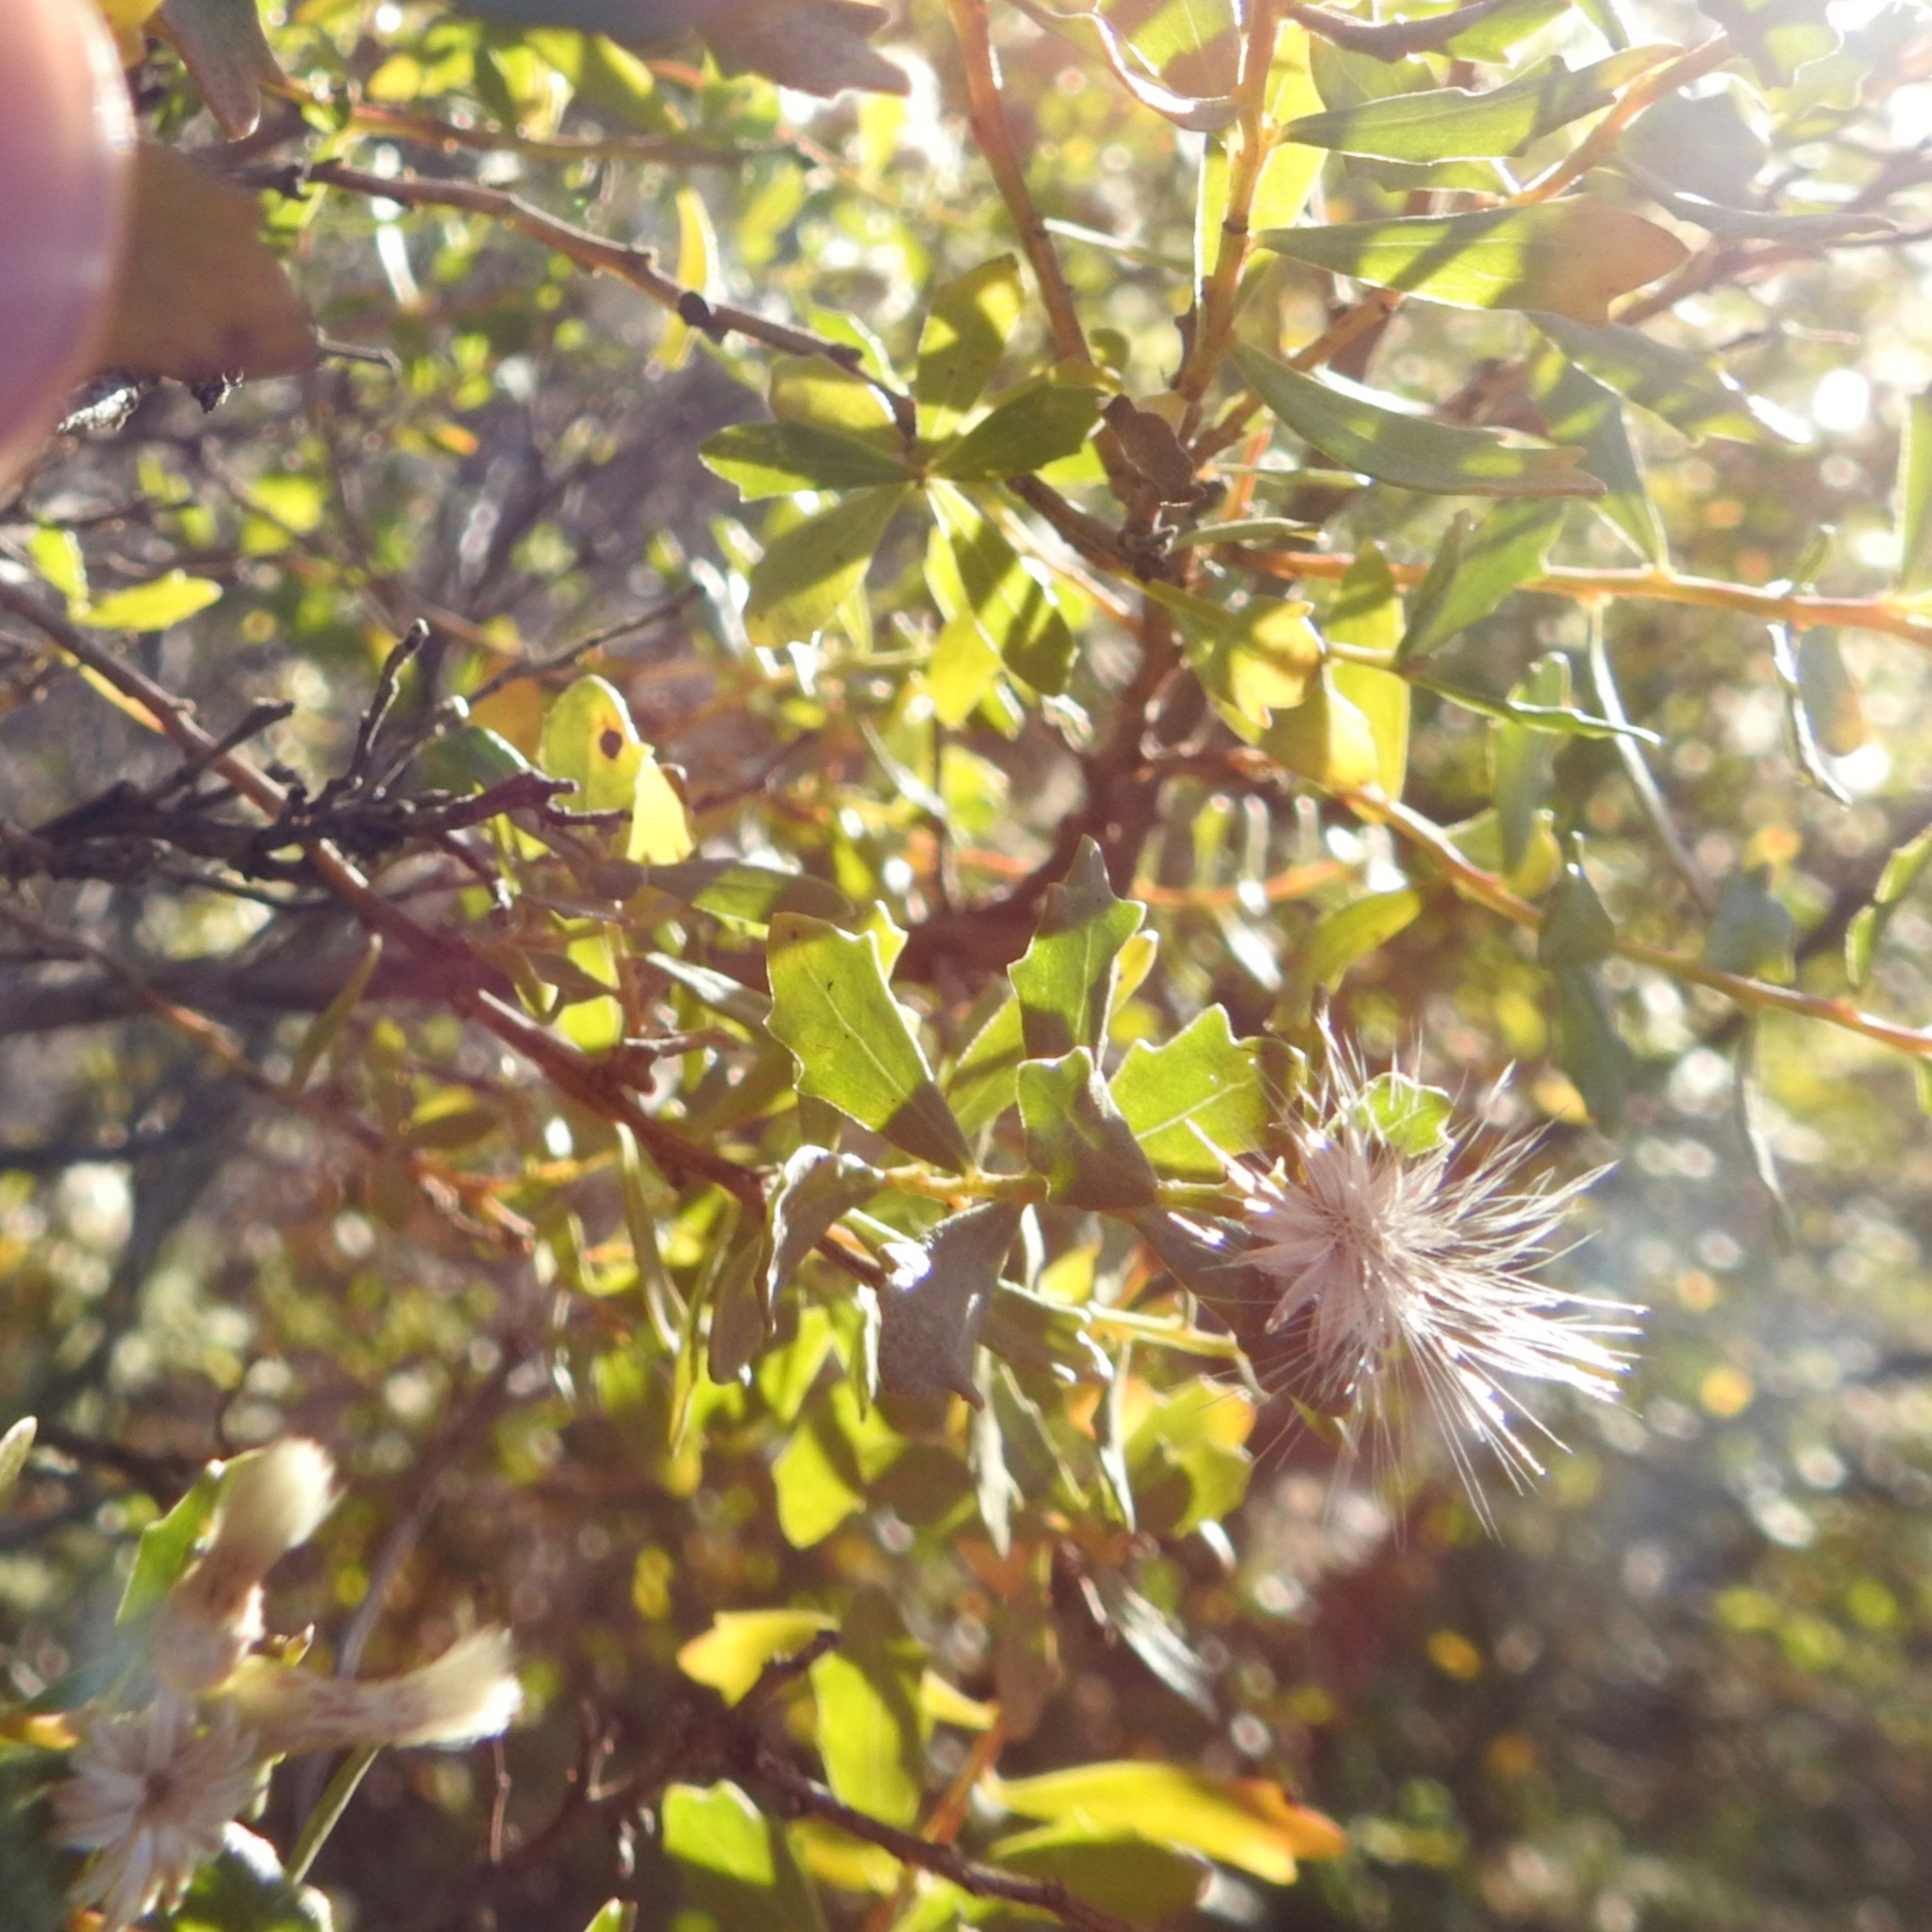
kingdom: Plantae
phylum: Tracheophyta
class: Magnoliopsida
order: Asterales
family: Asteraceae
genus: Baccharis
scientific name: Baccharis pilularis
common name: Coyotebrush
